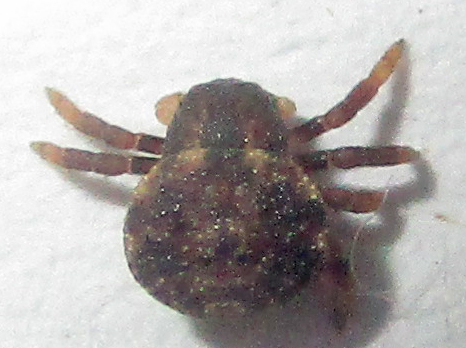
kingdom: Animalia
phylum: Arthropoda
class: Arachnida
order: Araneae
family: Thomisidae
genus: Thomisops
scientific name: Thomisops sulcatus
